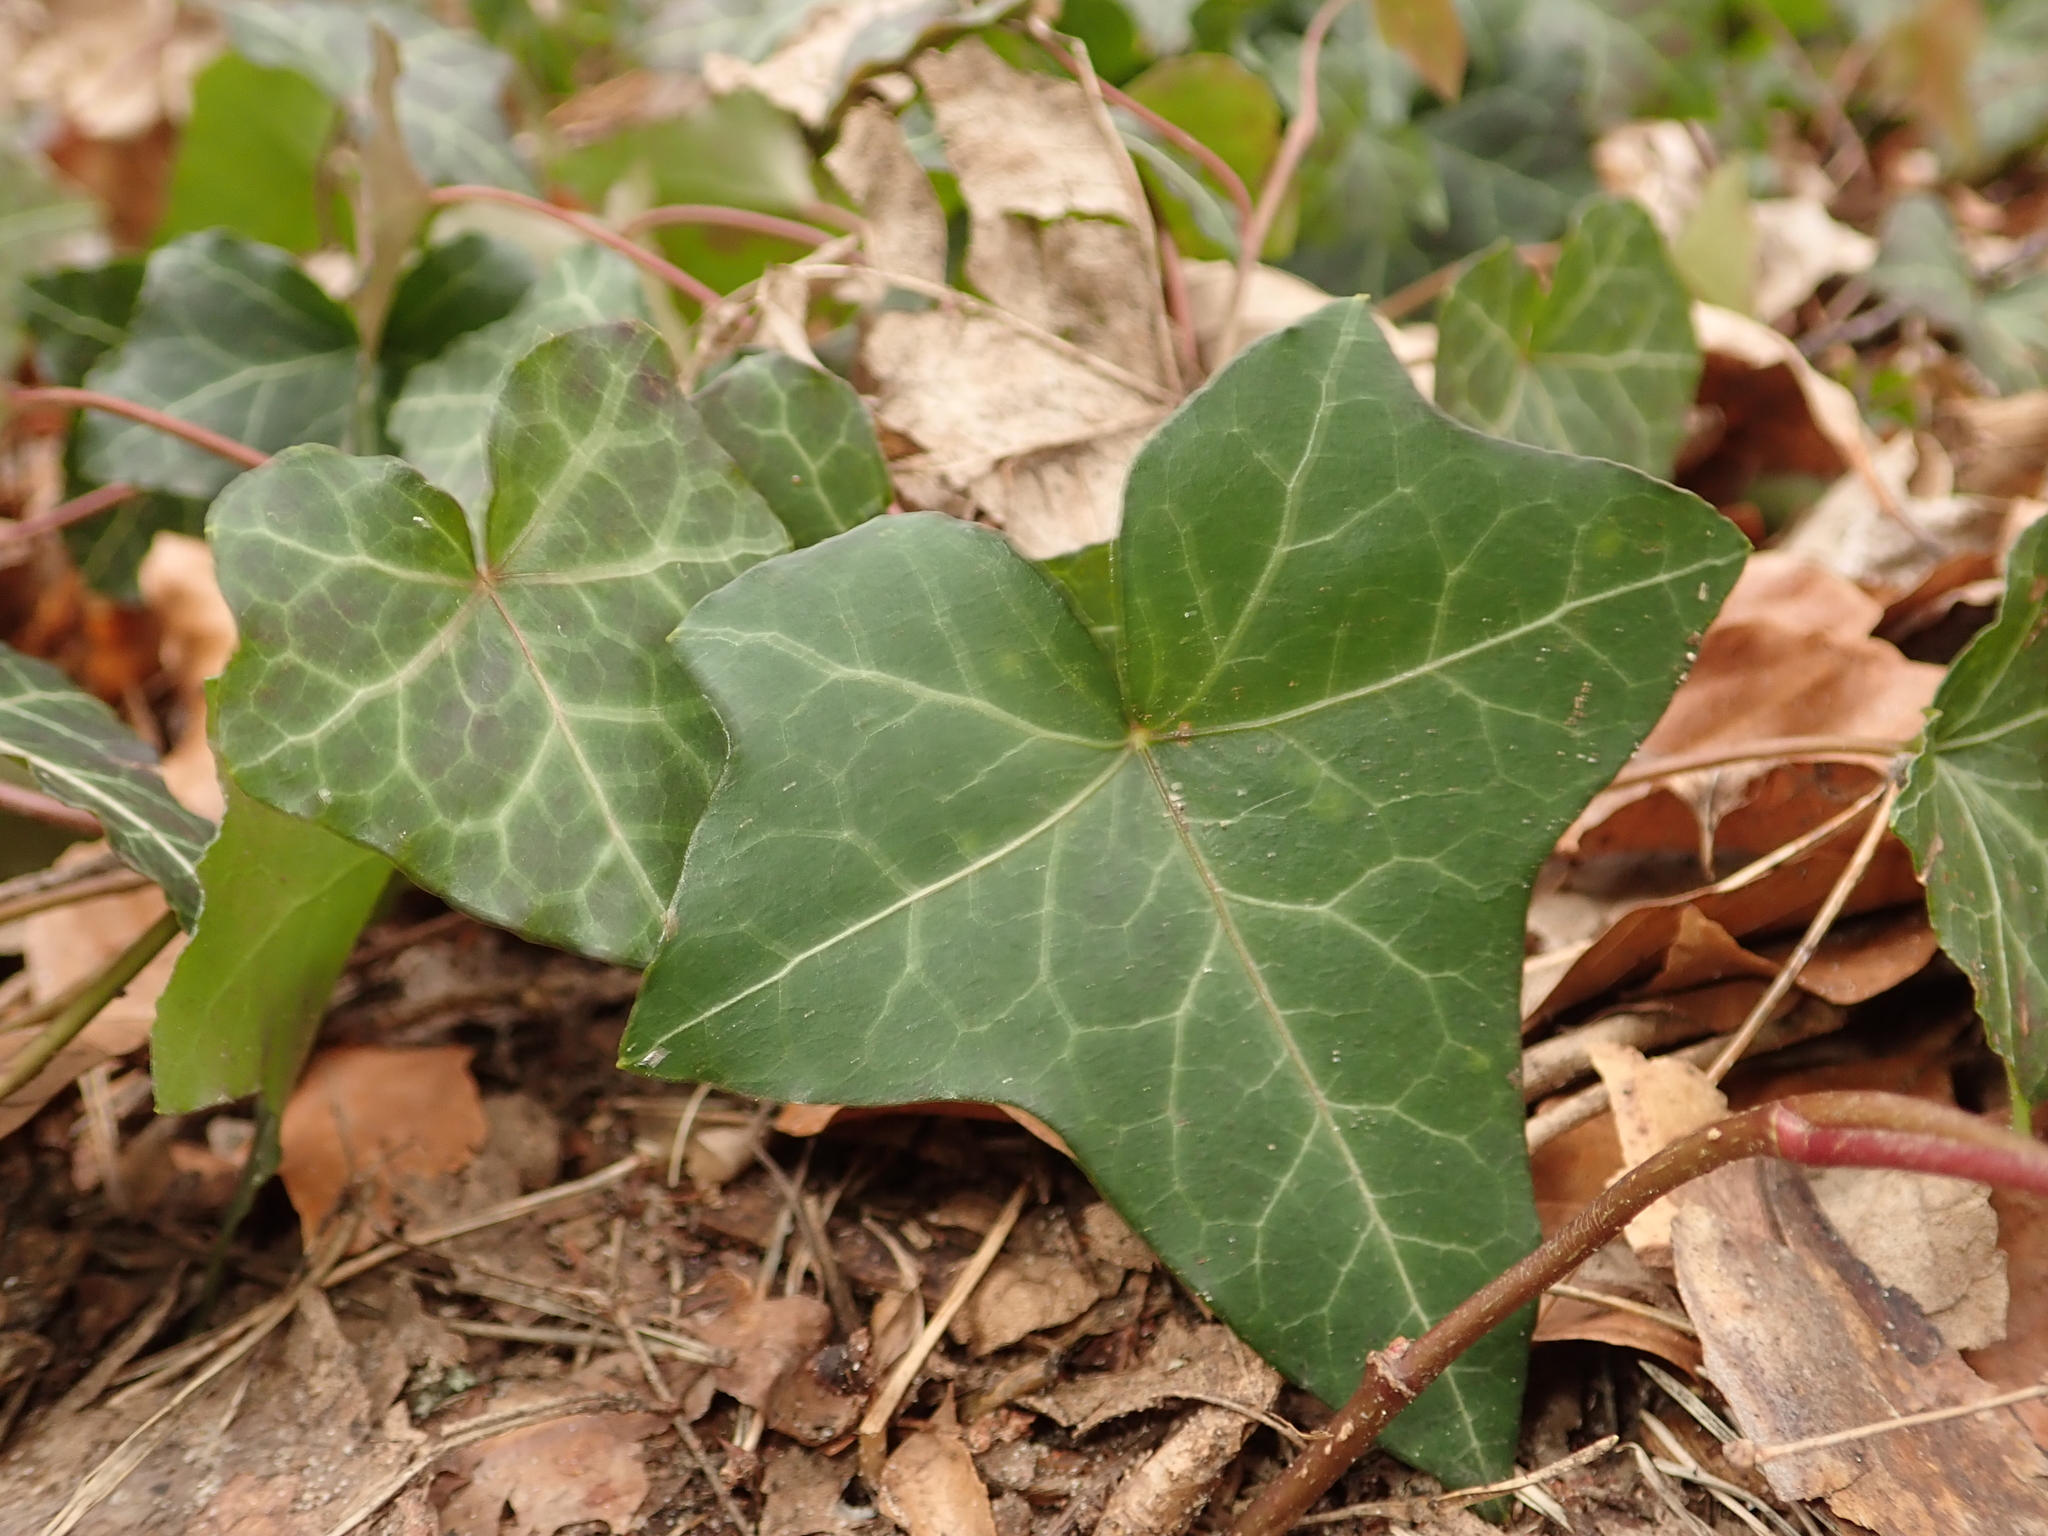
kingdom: Plantae
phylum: Tracheophyta
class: Magnoliopsida
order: Apiales
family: Araliaceae
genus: Hedera
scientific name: Hedera helix
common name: Ivy
